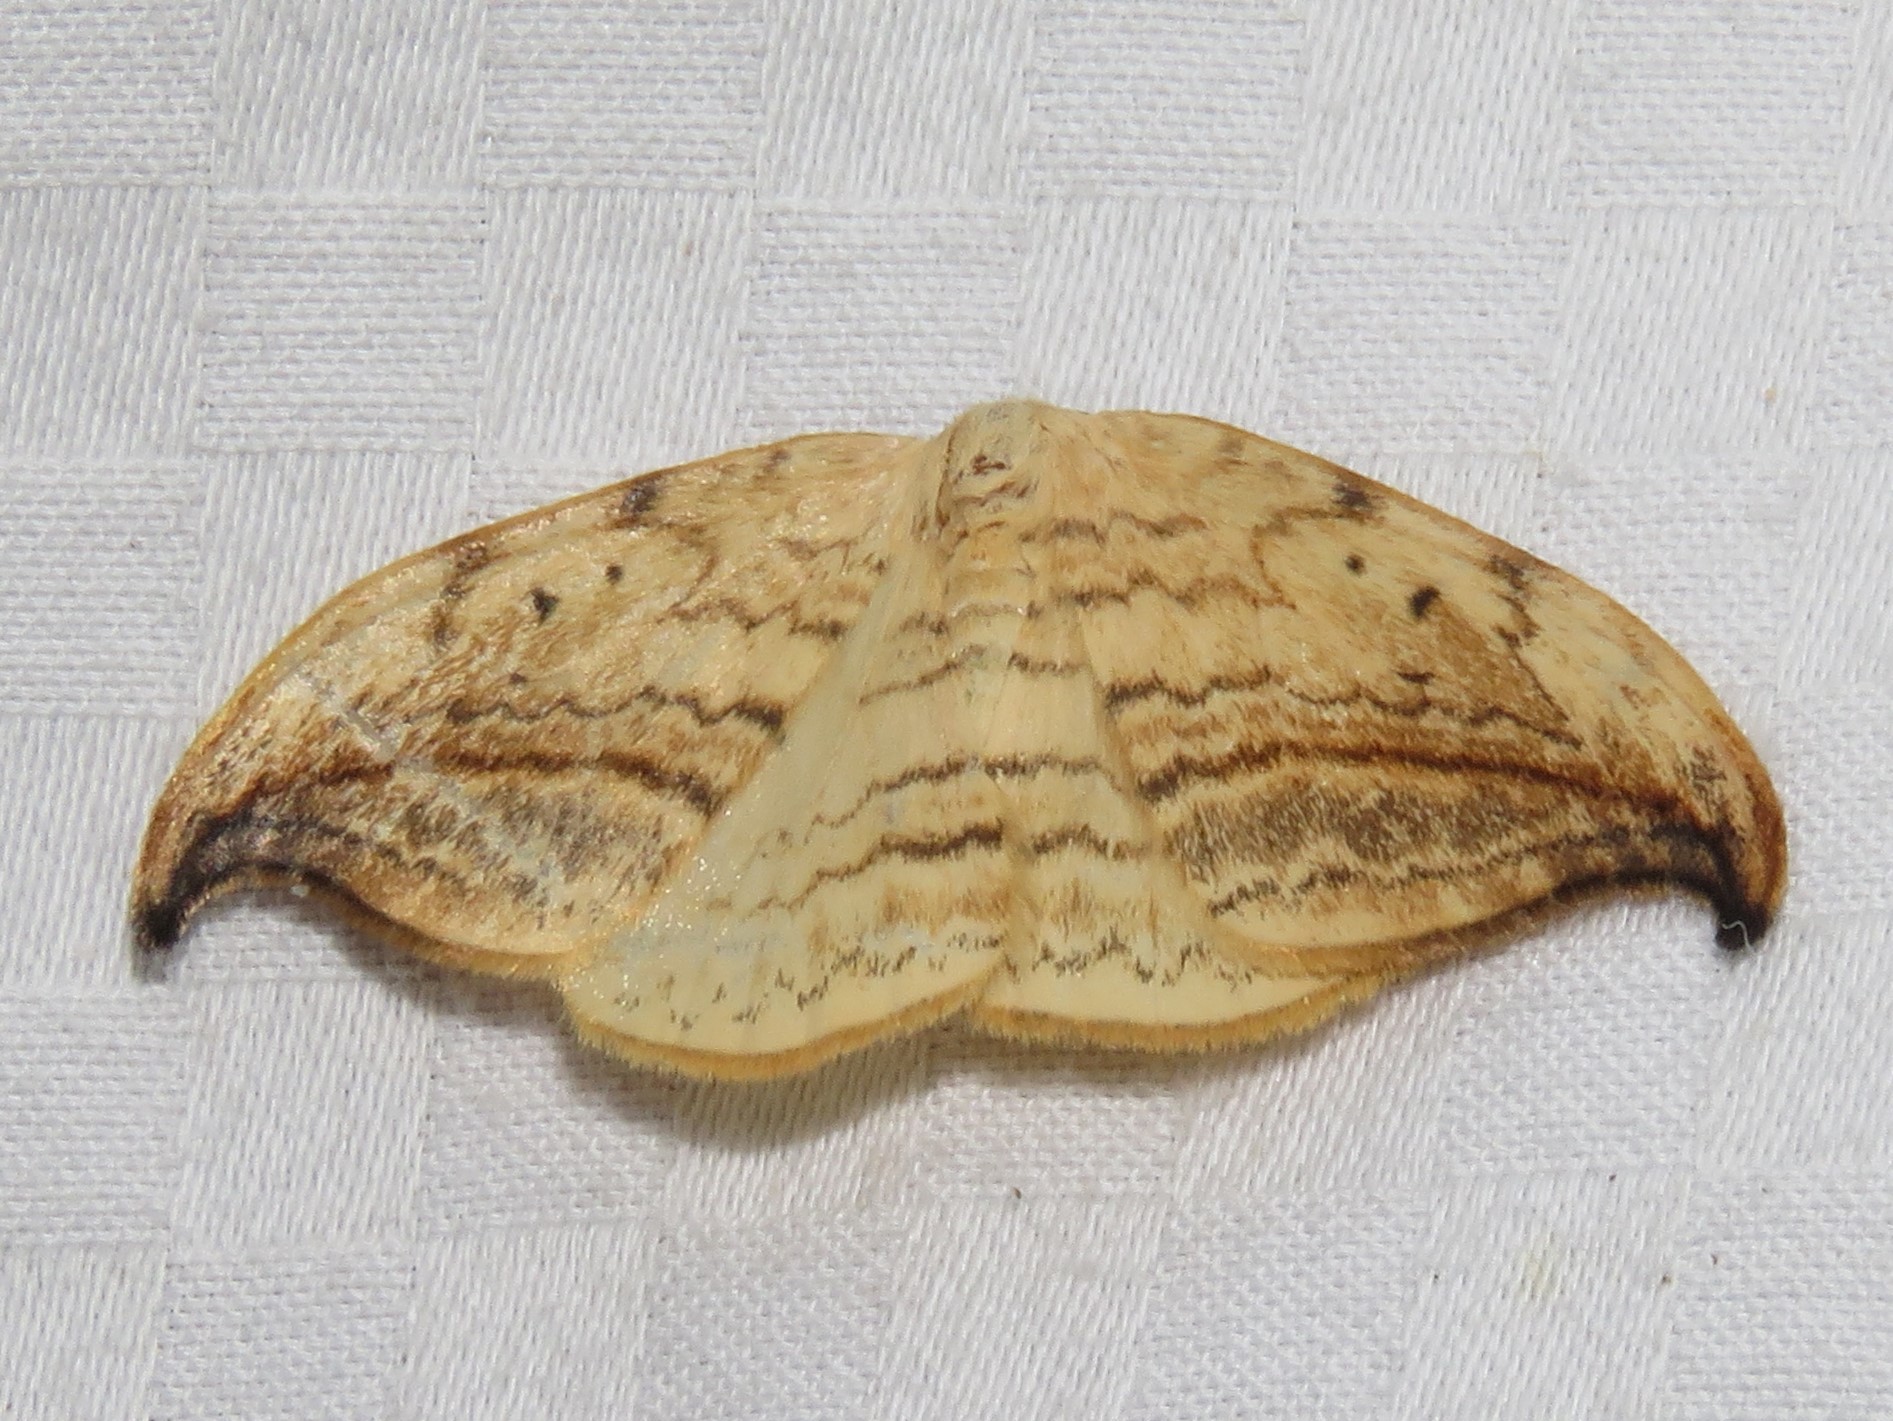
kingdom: Animalia
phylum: Arthropoda
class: Insecta
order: Lepidoptera
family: Drepanidae
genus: Drepana
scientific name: Drepana arcuata
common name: Arched hooktip moth
